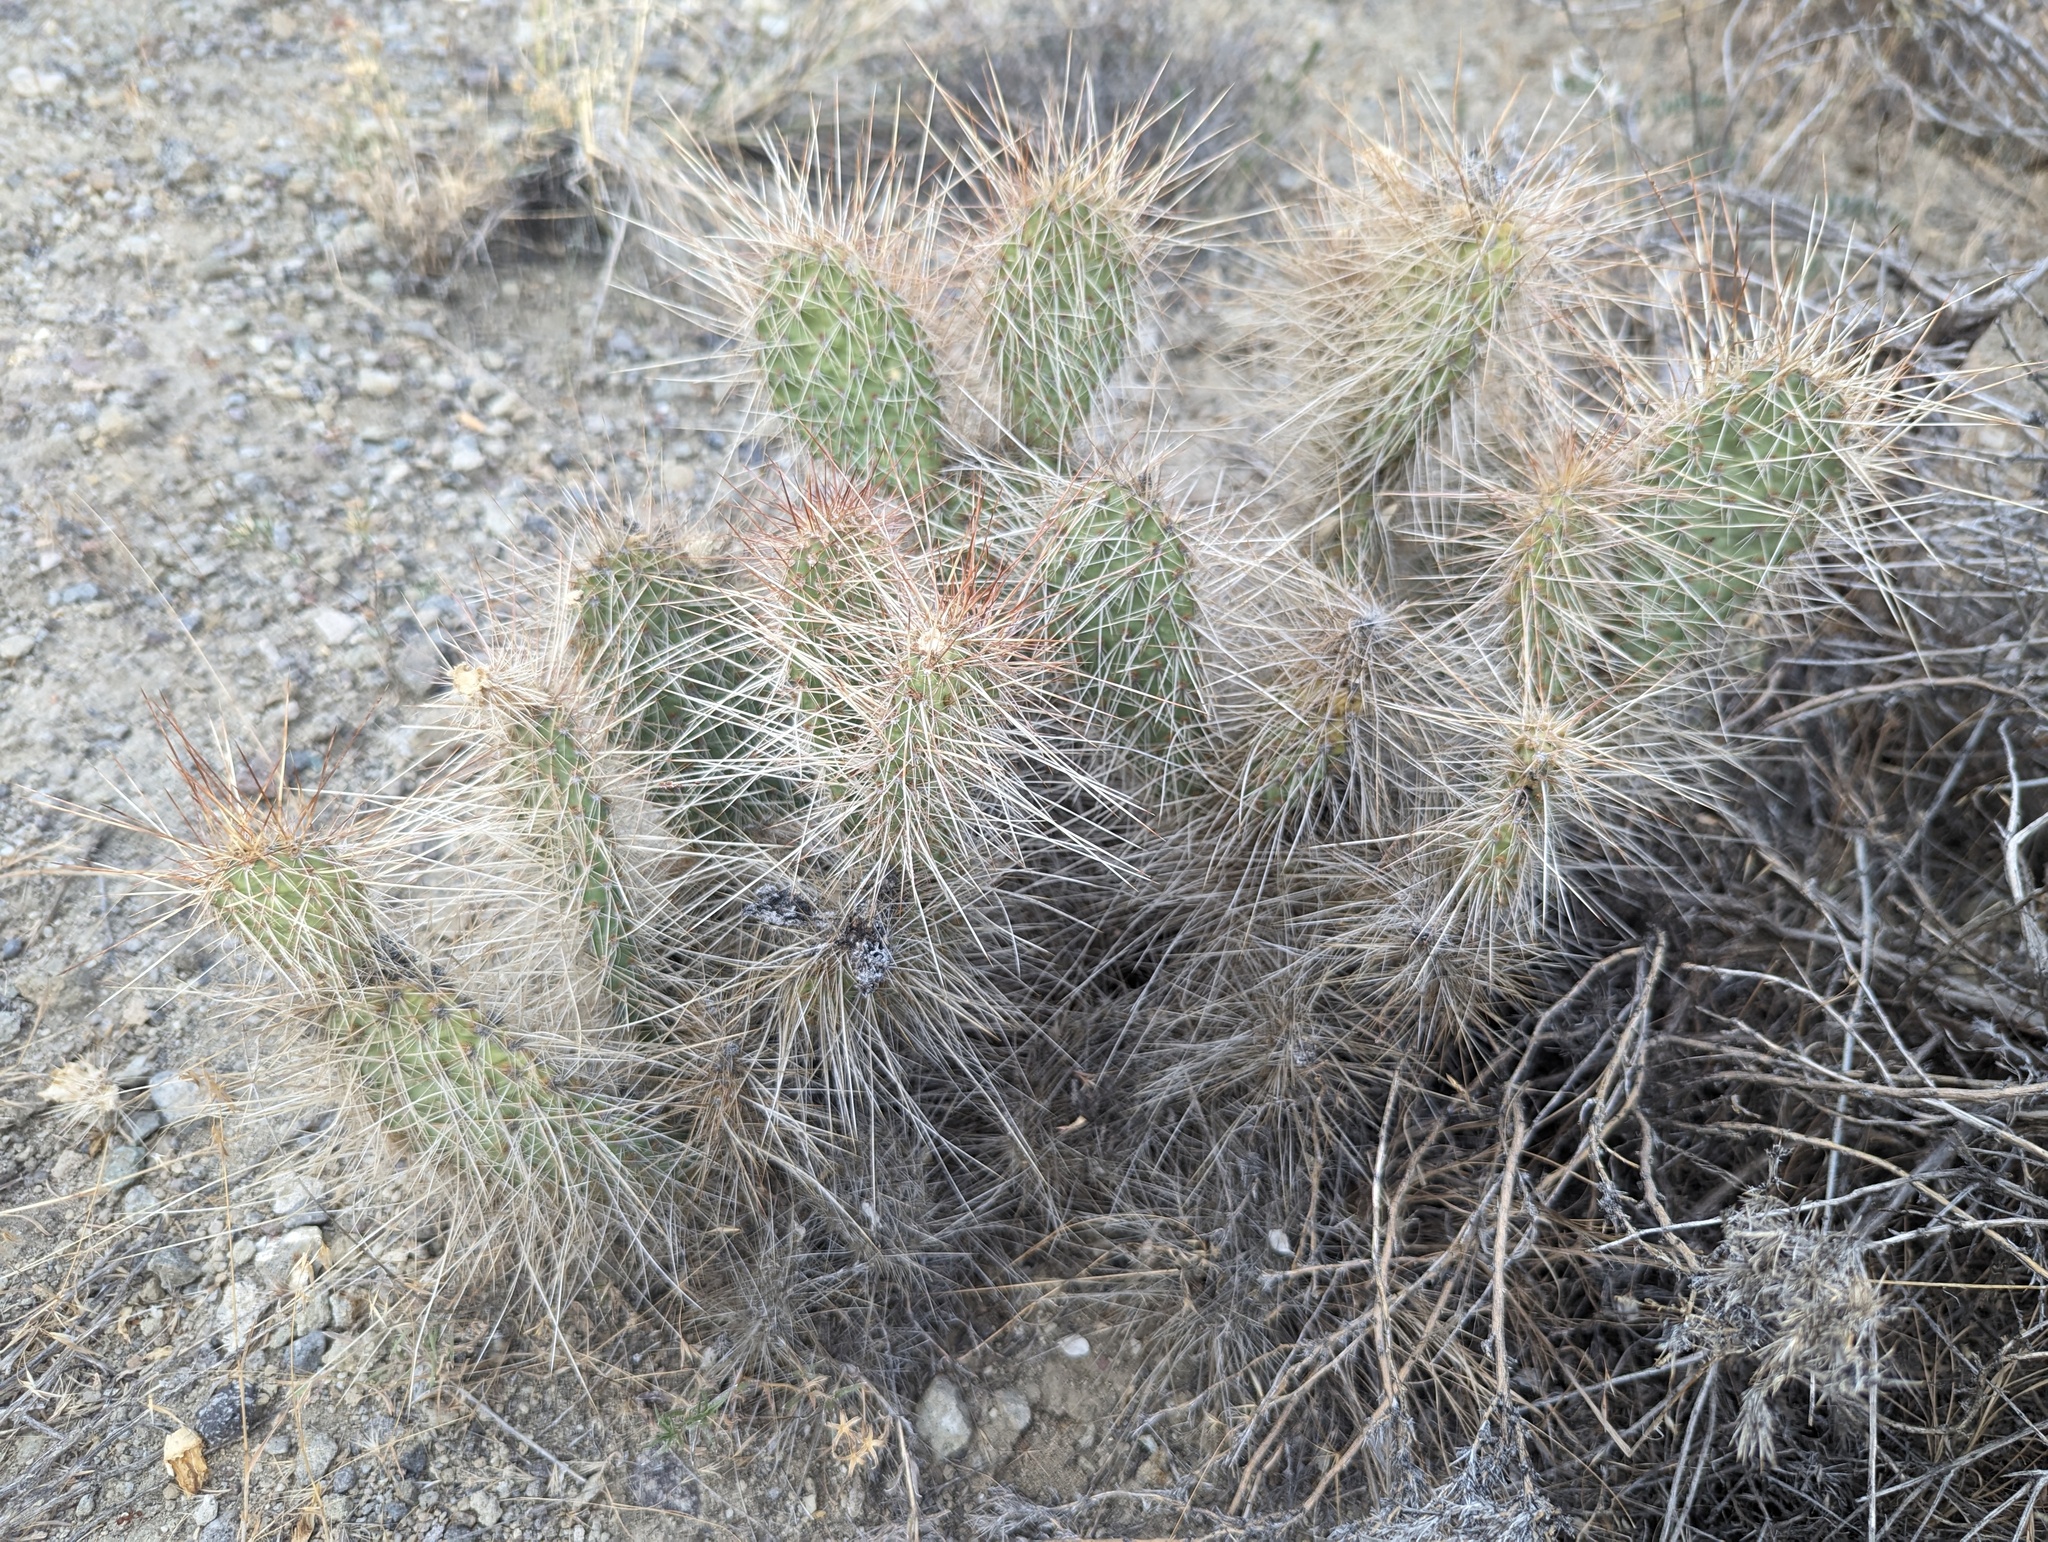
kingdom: Plantae
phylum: Tracheophyta
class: Magnoliopsida
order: Caryophyllales
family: Cactaceae
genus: Opuntia
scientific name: Opuntia polyacantha
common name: Plains prickly-pear
